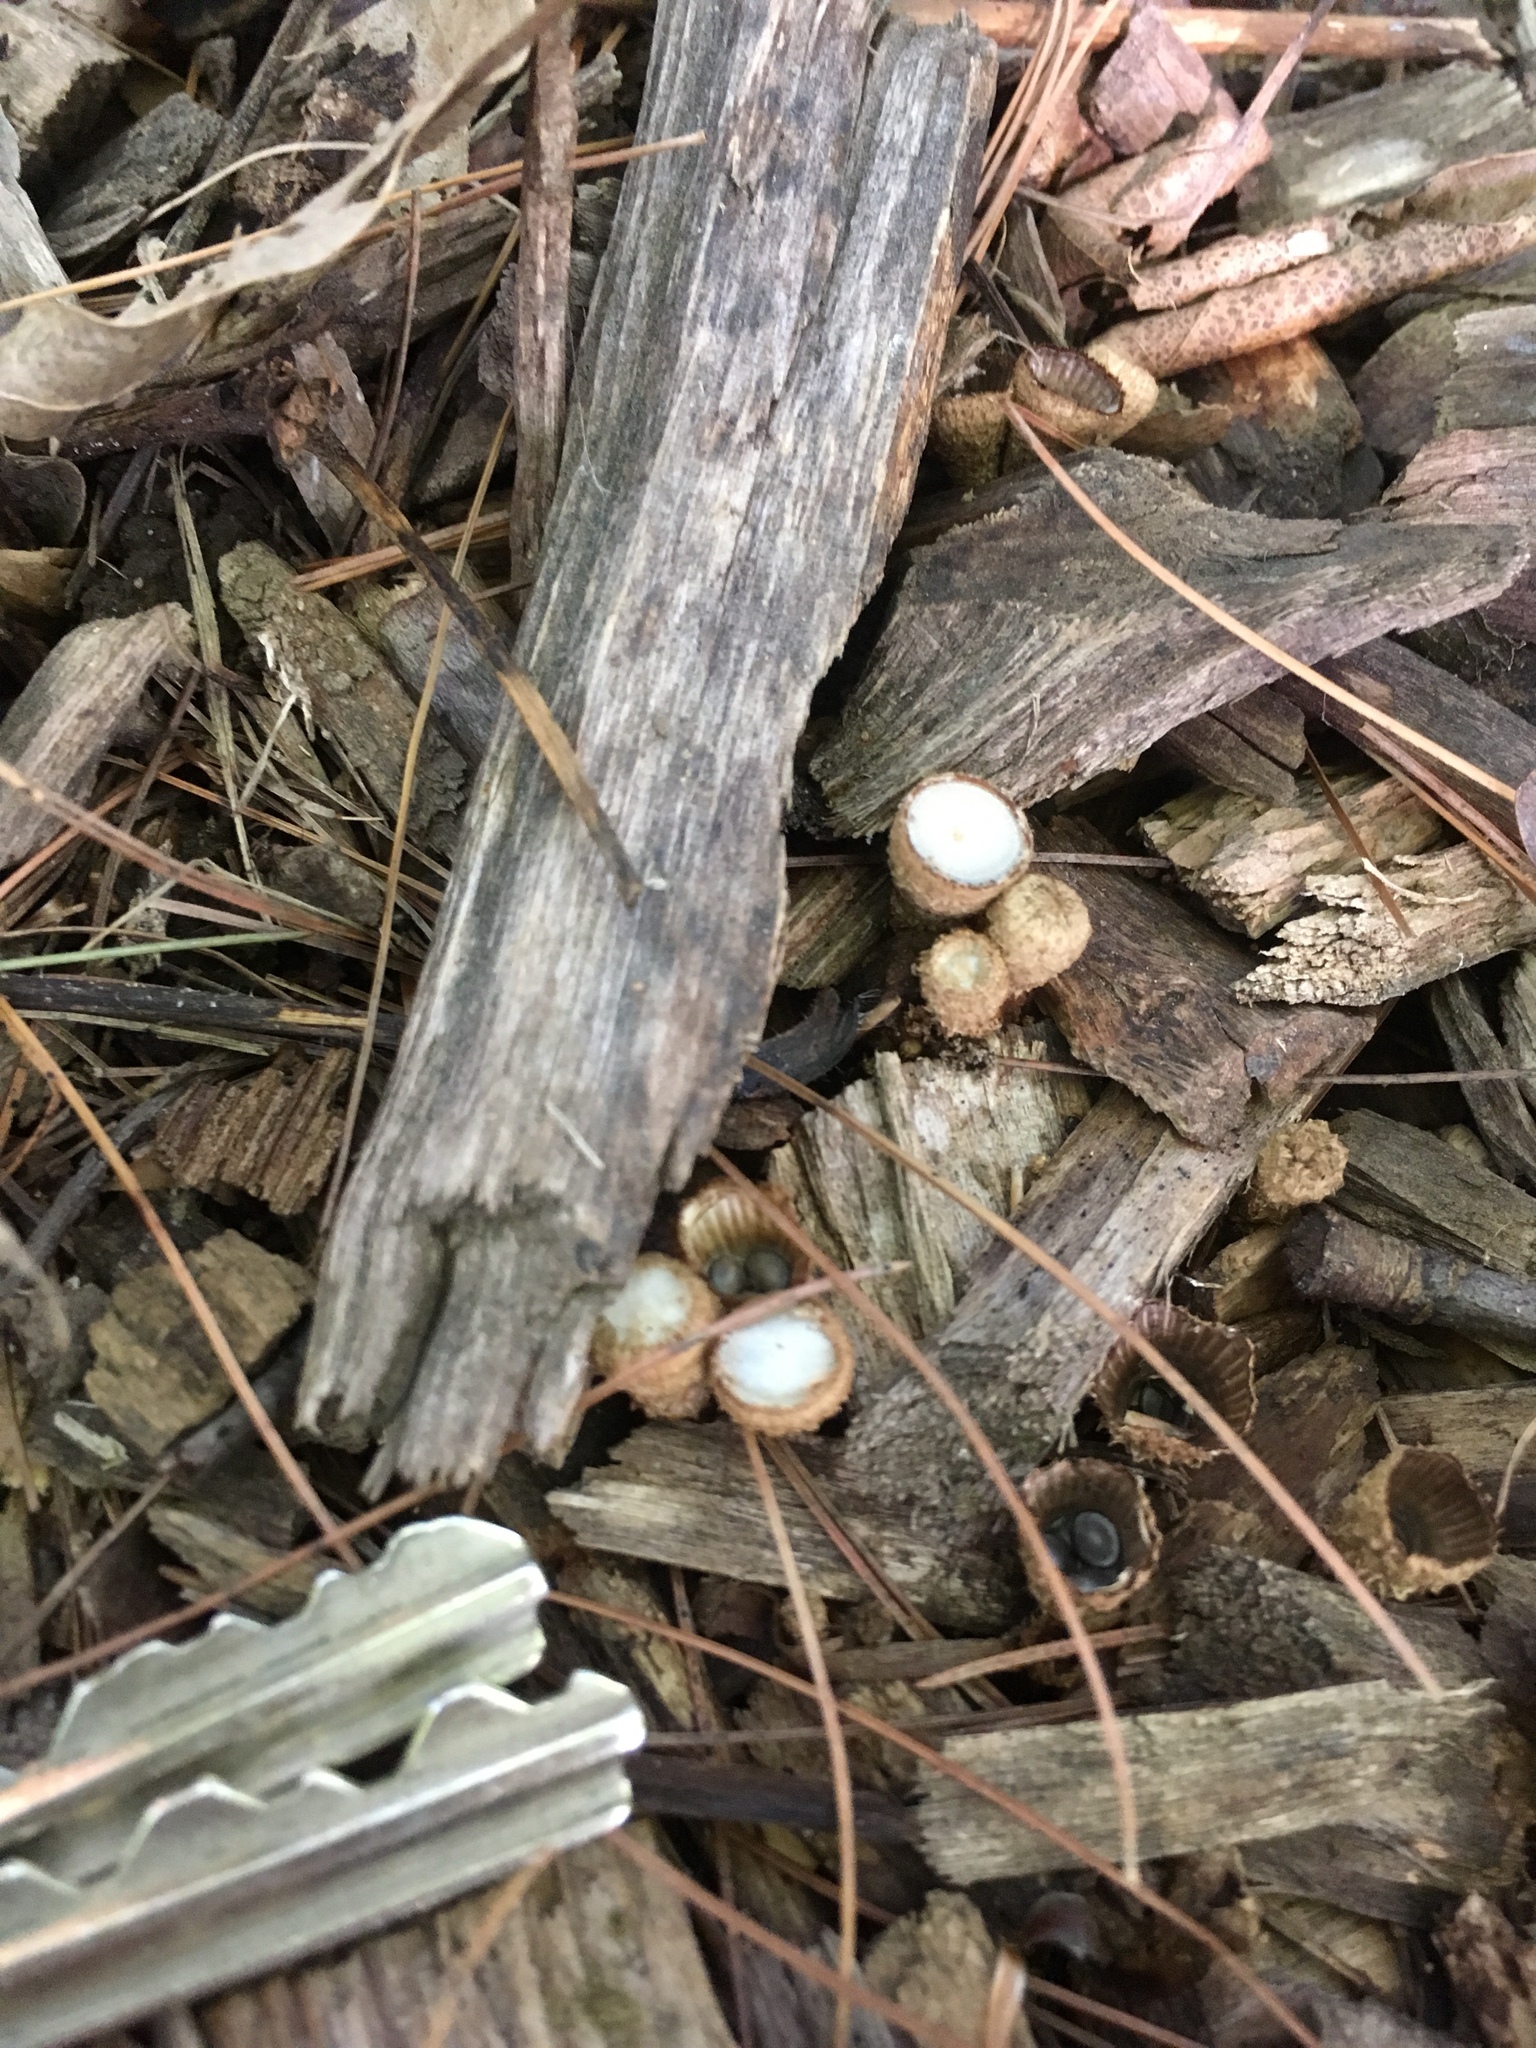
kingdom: Fungi
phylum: Basidiomycota
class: Agaricomycetes
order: Agaricales
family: Agaricaceae
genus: Cyathus
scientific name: Cyathus striatus
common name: Fluted bird's nest
